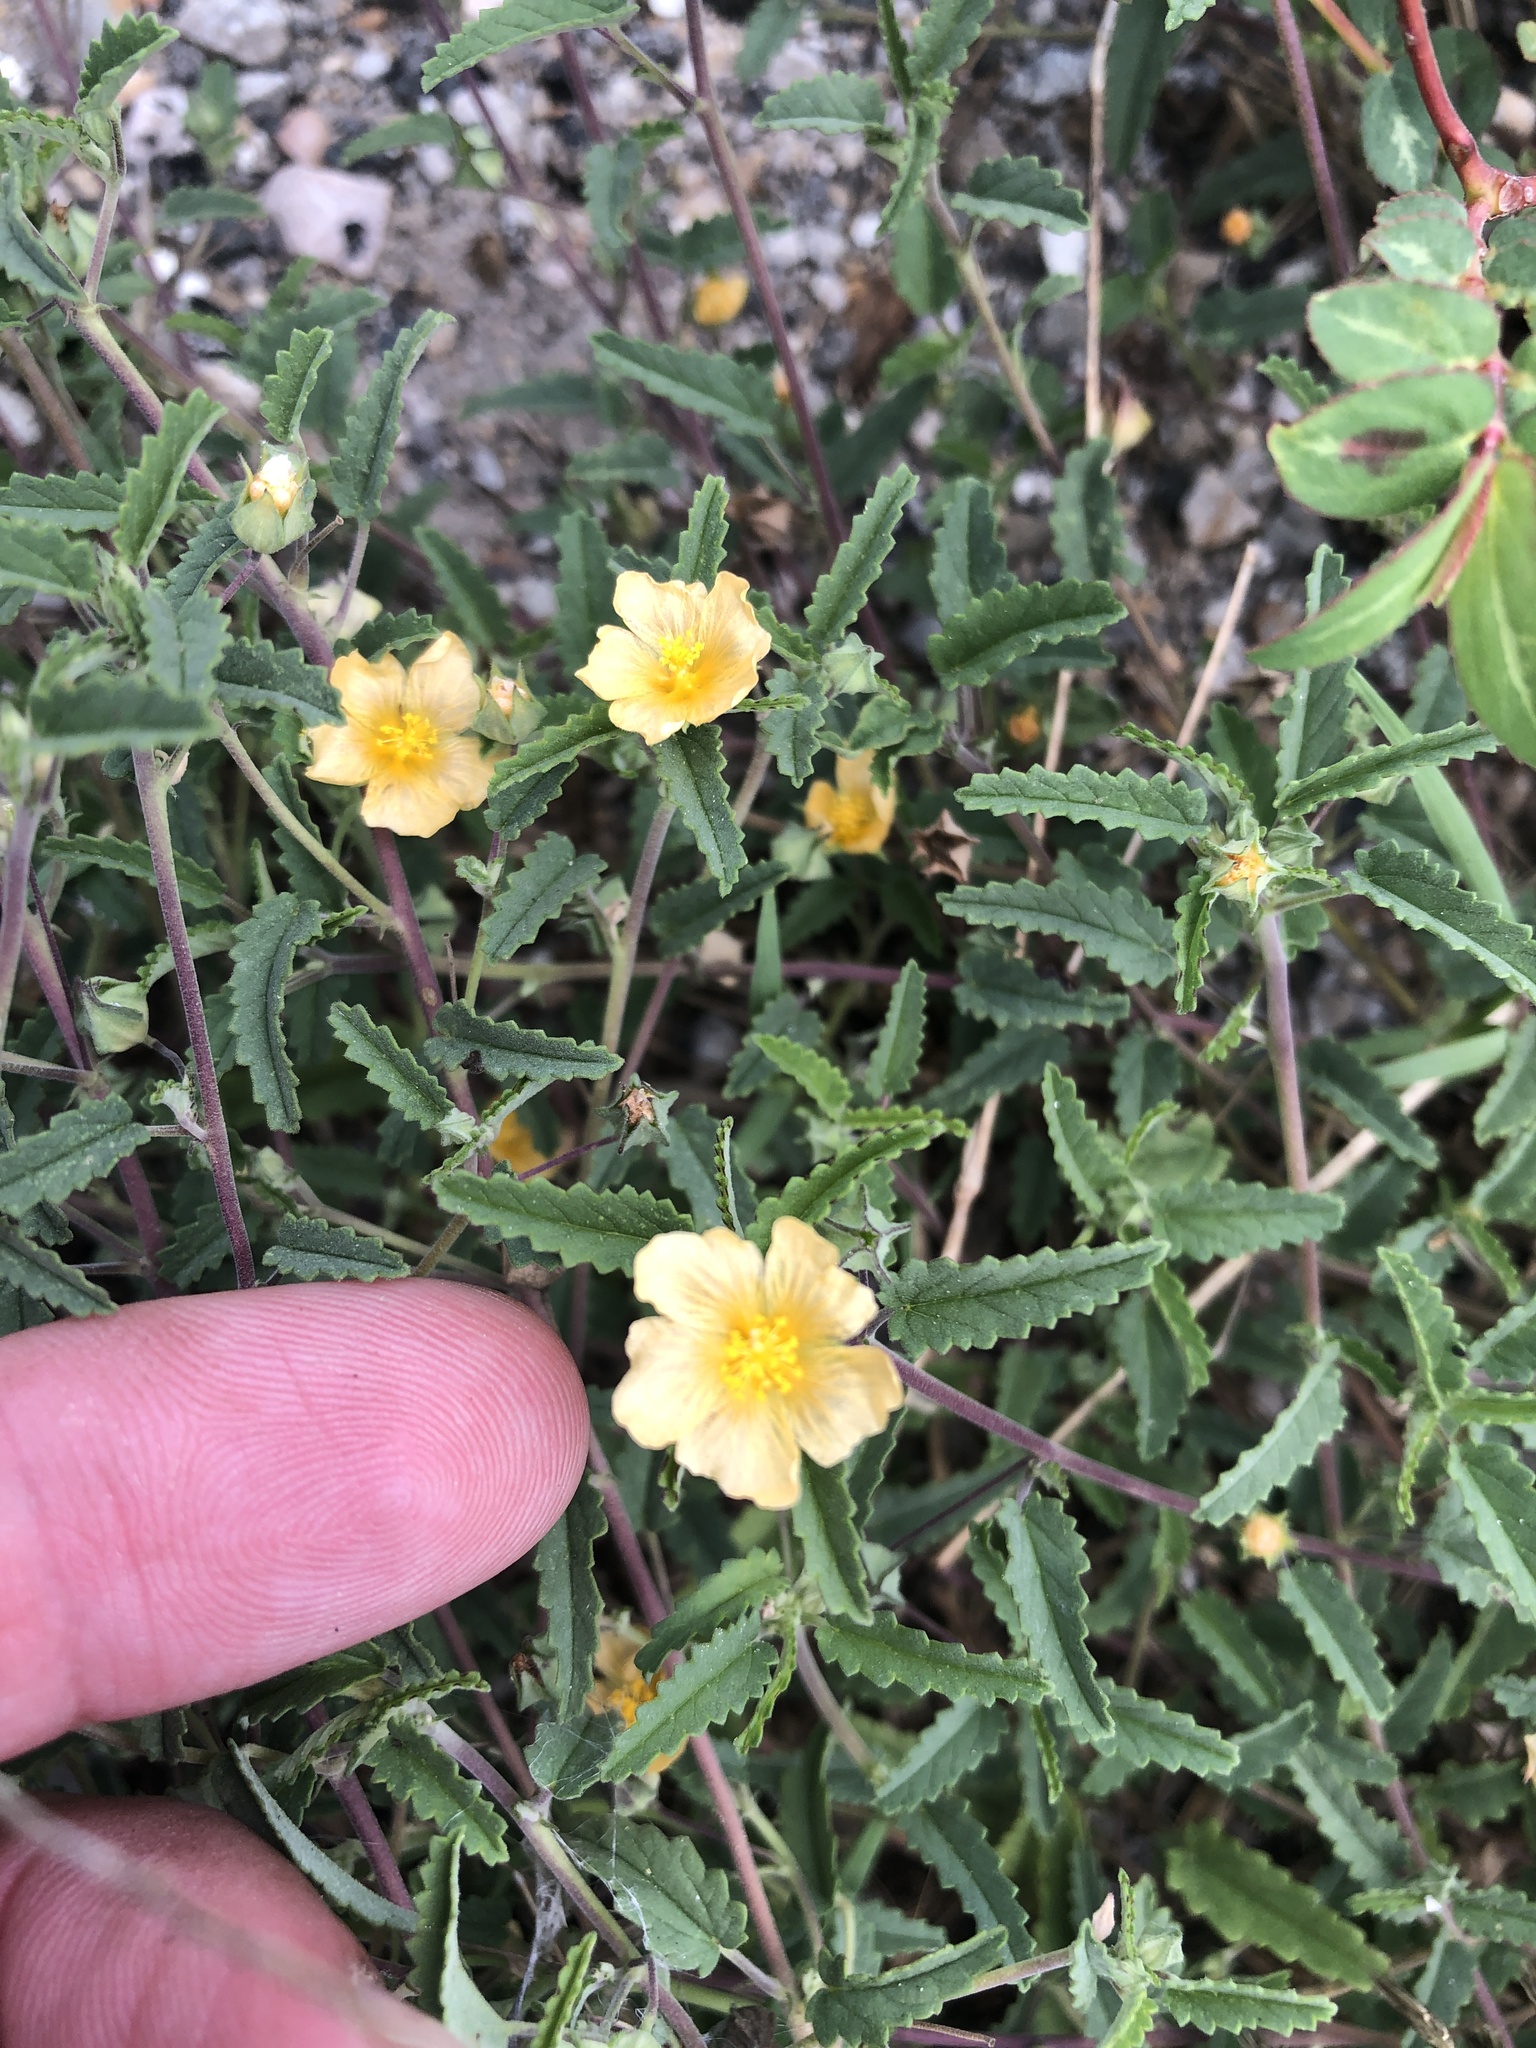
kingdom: Plantae
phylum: Tracheophyta
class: Magnoliopsida
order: Malvales
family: Malvaceae
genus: Sida
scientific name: Sida abutilifolia
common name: Spreading fanpetals
